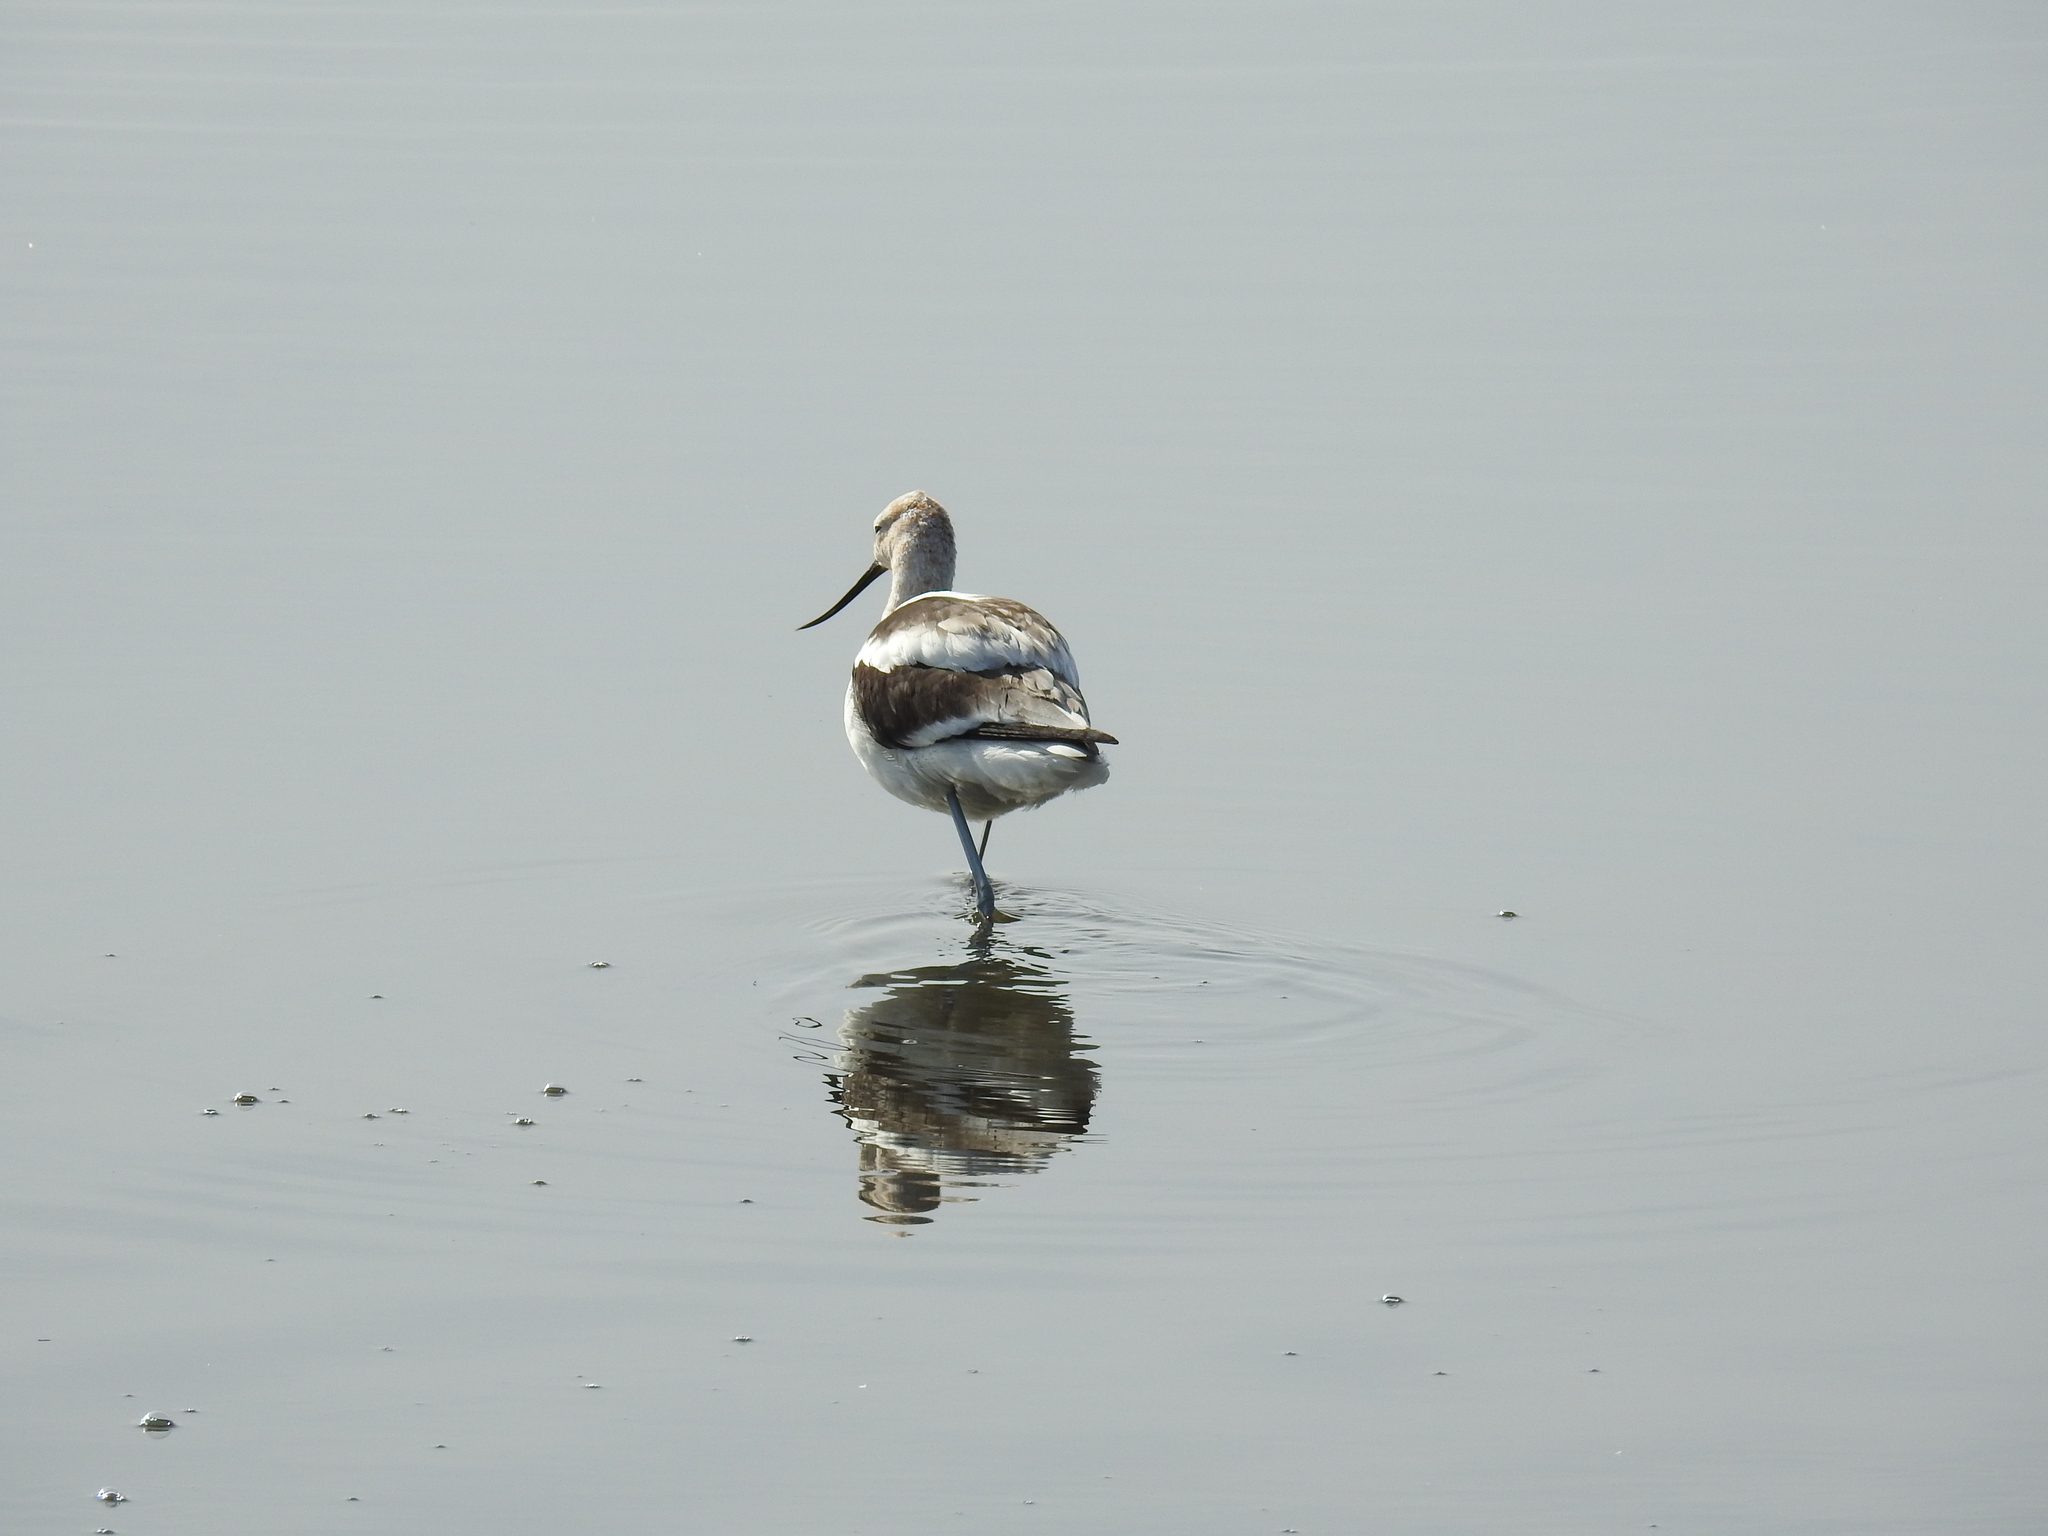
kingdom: Animalia
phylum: Chordata
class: Aves
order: Charadriiformes
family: Recurvirostridae
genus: Recurvirostra
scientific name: Recurvirostra americana
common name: American avocet
